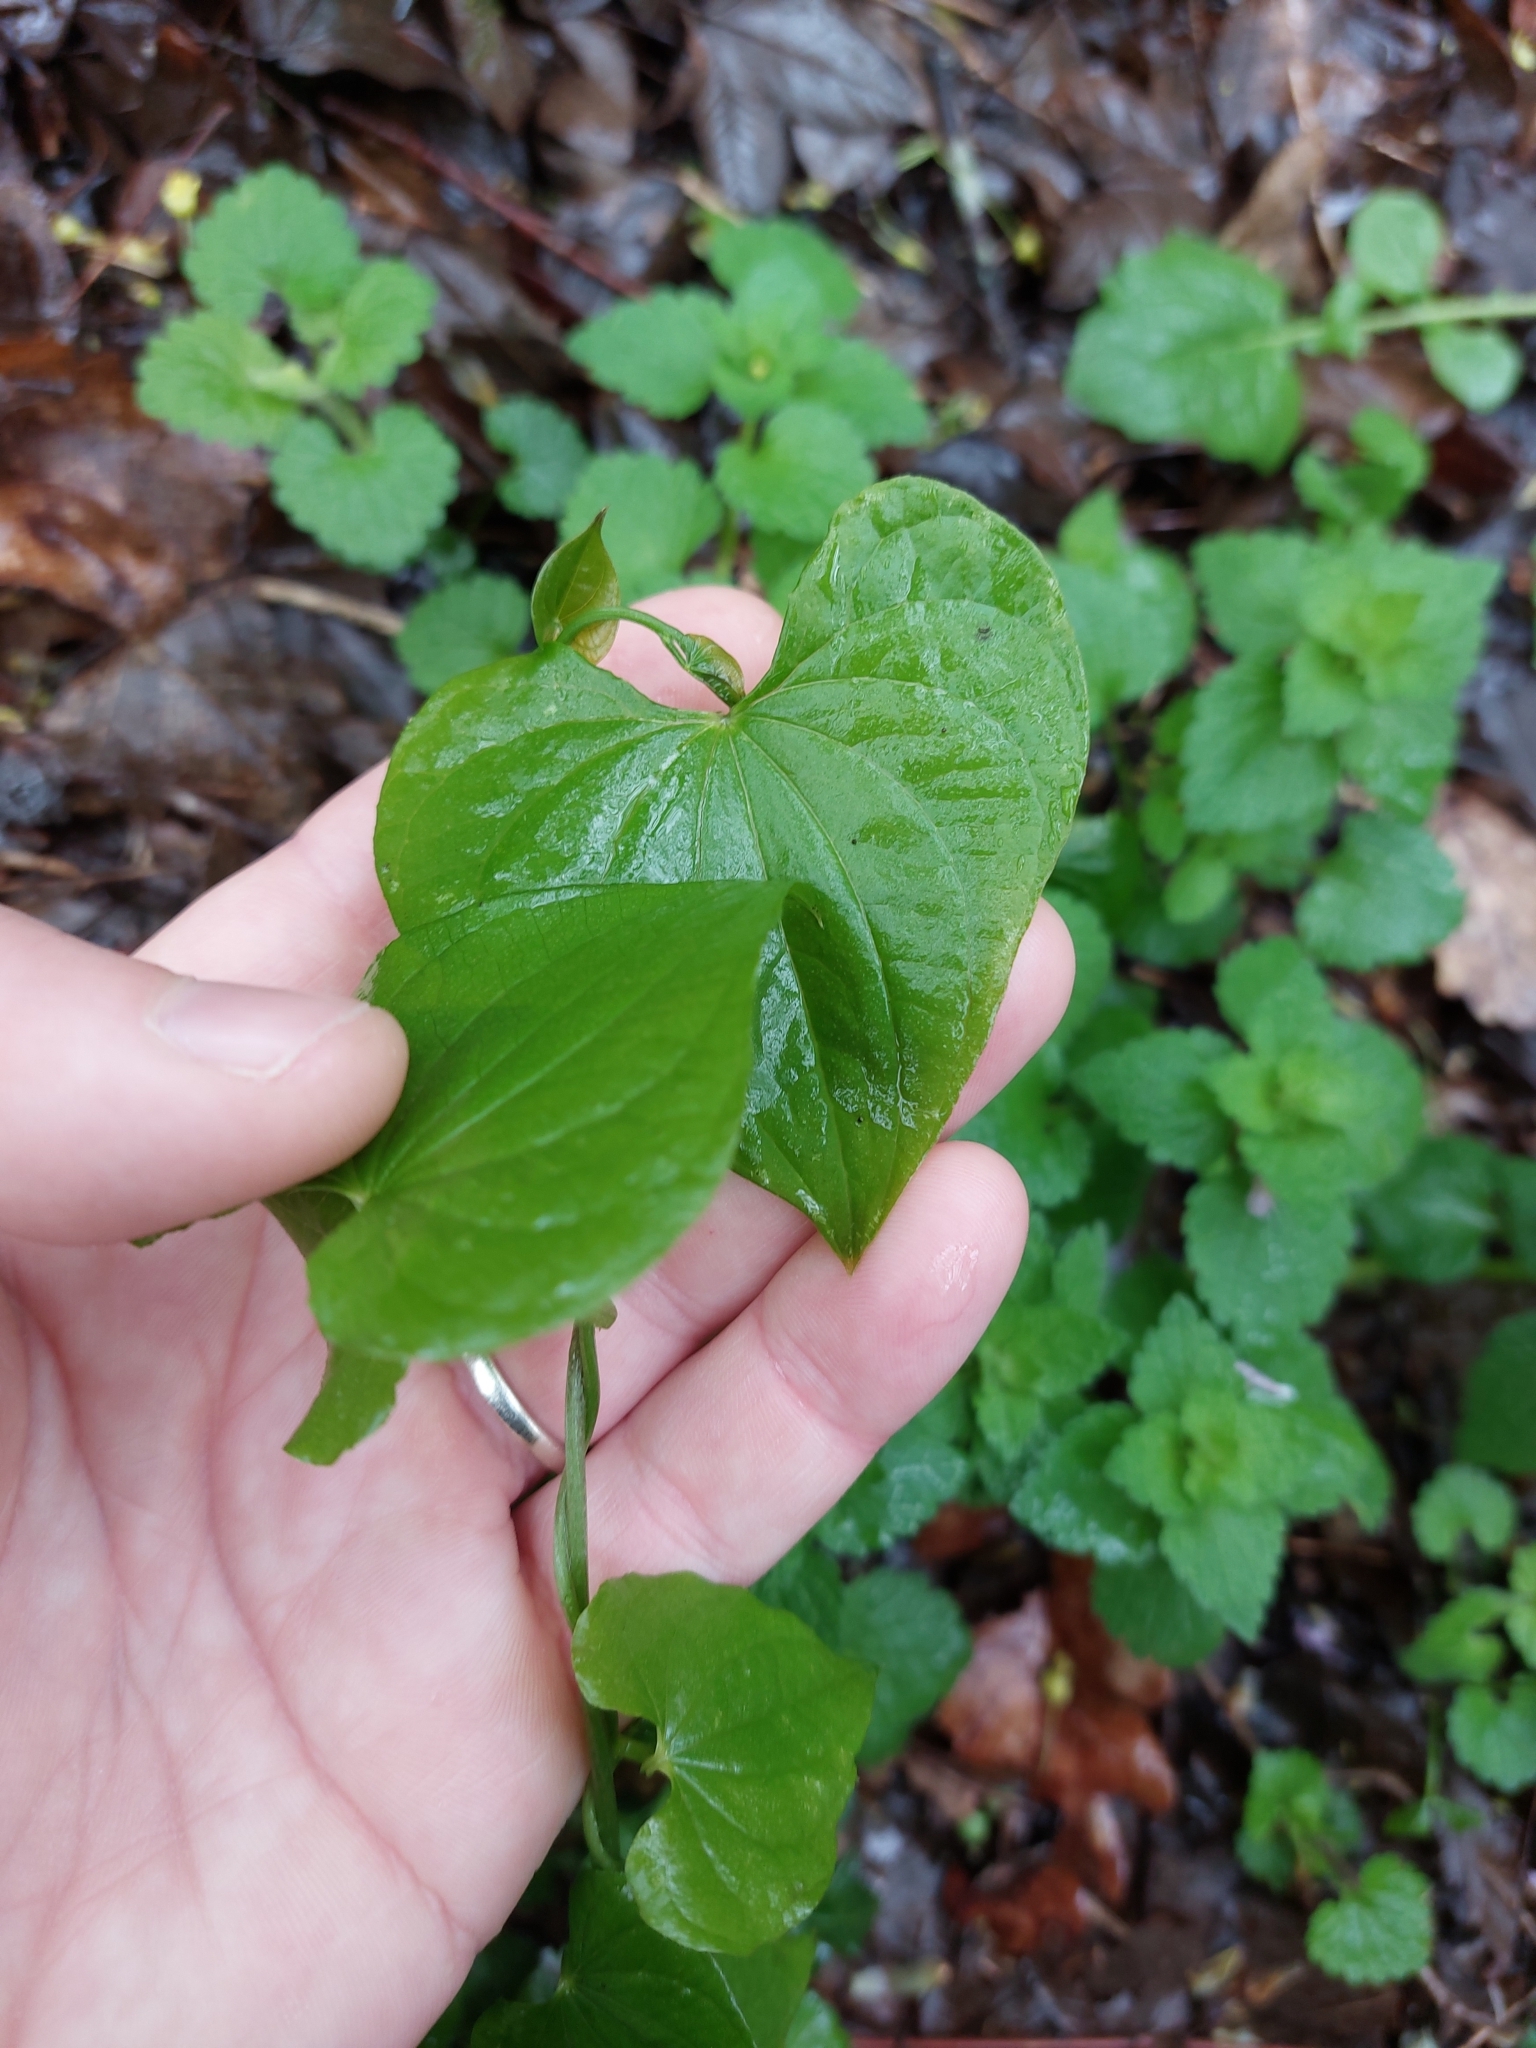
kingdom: Plantae
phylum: Tracheophyta
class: Liliopsida
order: Dioscoreales
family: Dioscoreaceae
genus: Dioscorea
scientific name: Dioscorea communis
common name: Black-bindweed
